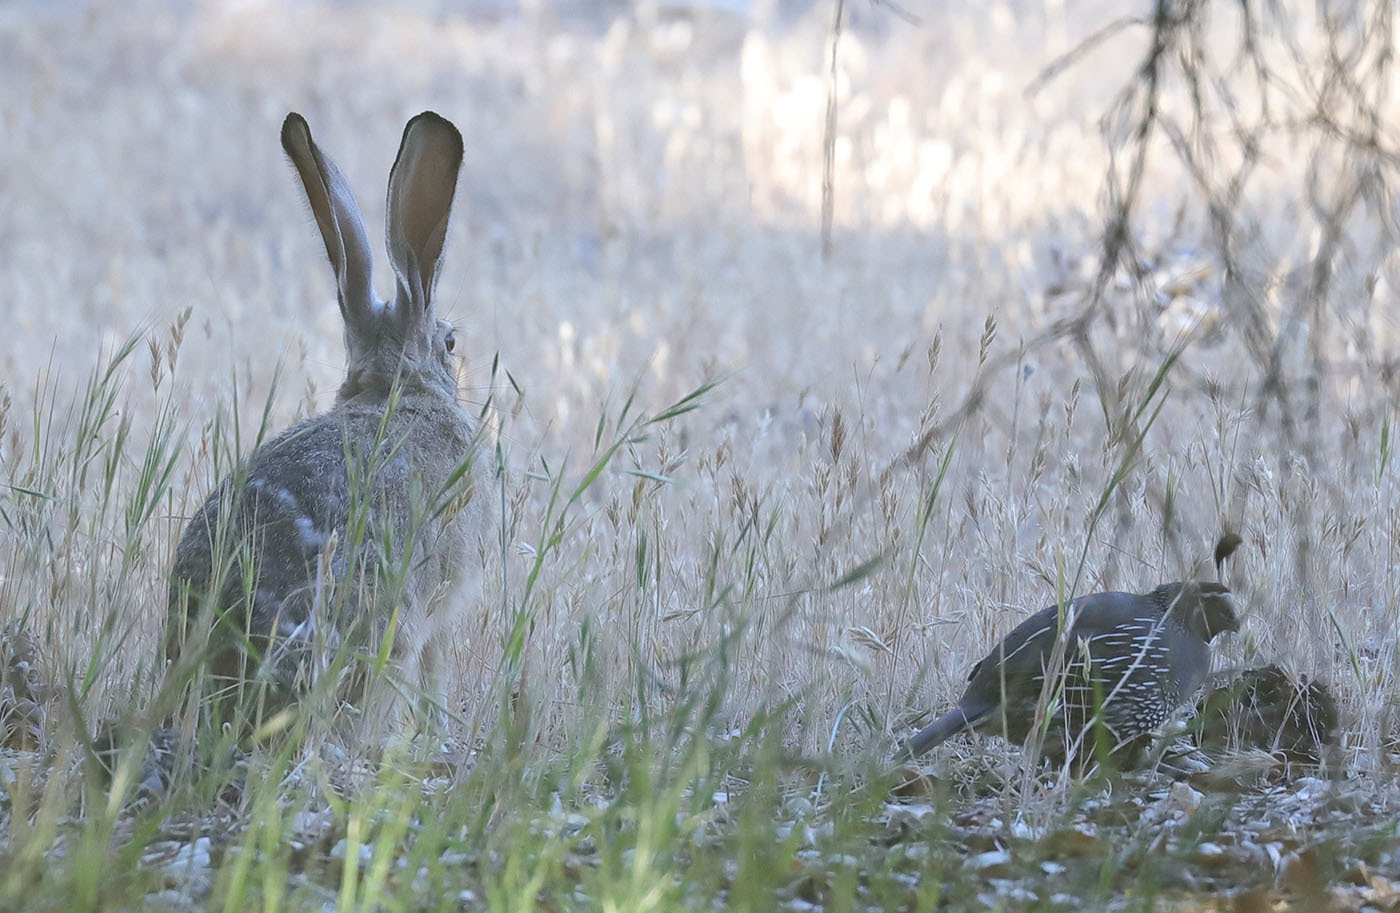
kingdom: Animalia
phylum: Chordata
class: Aves
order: Galliformes
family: Odontophoridae
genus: Callipepla
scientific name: Callipepla californica
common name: California quail
